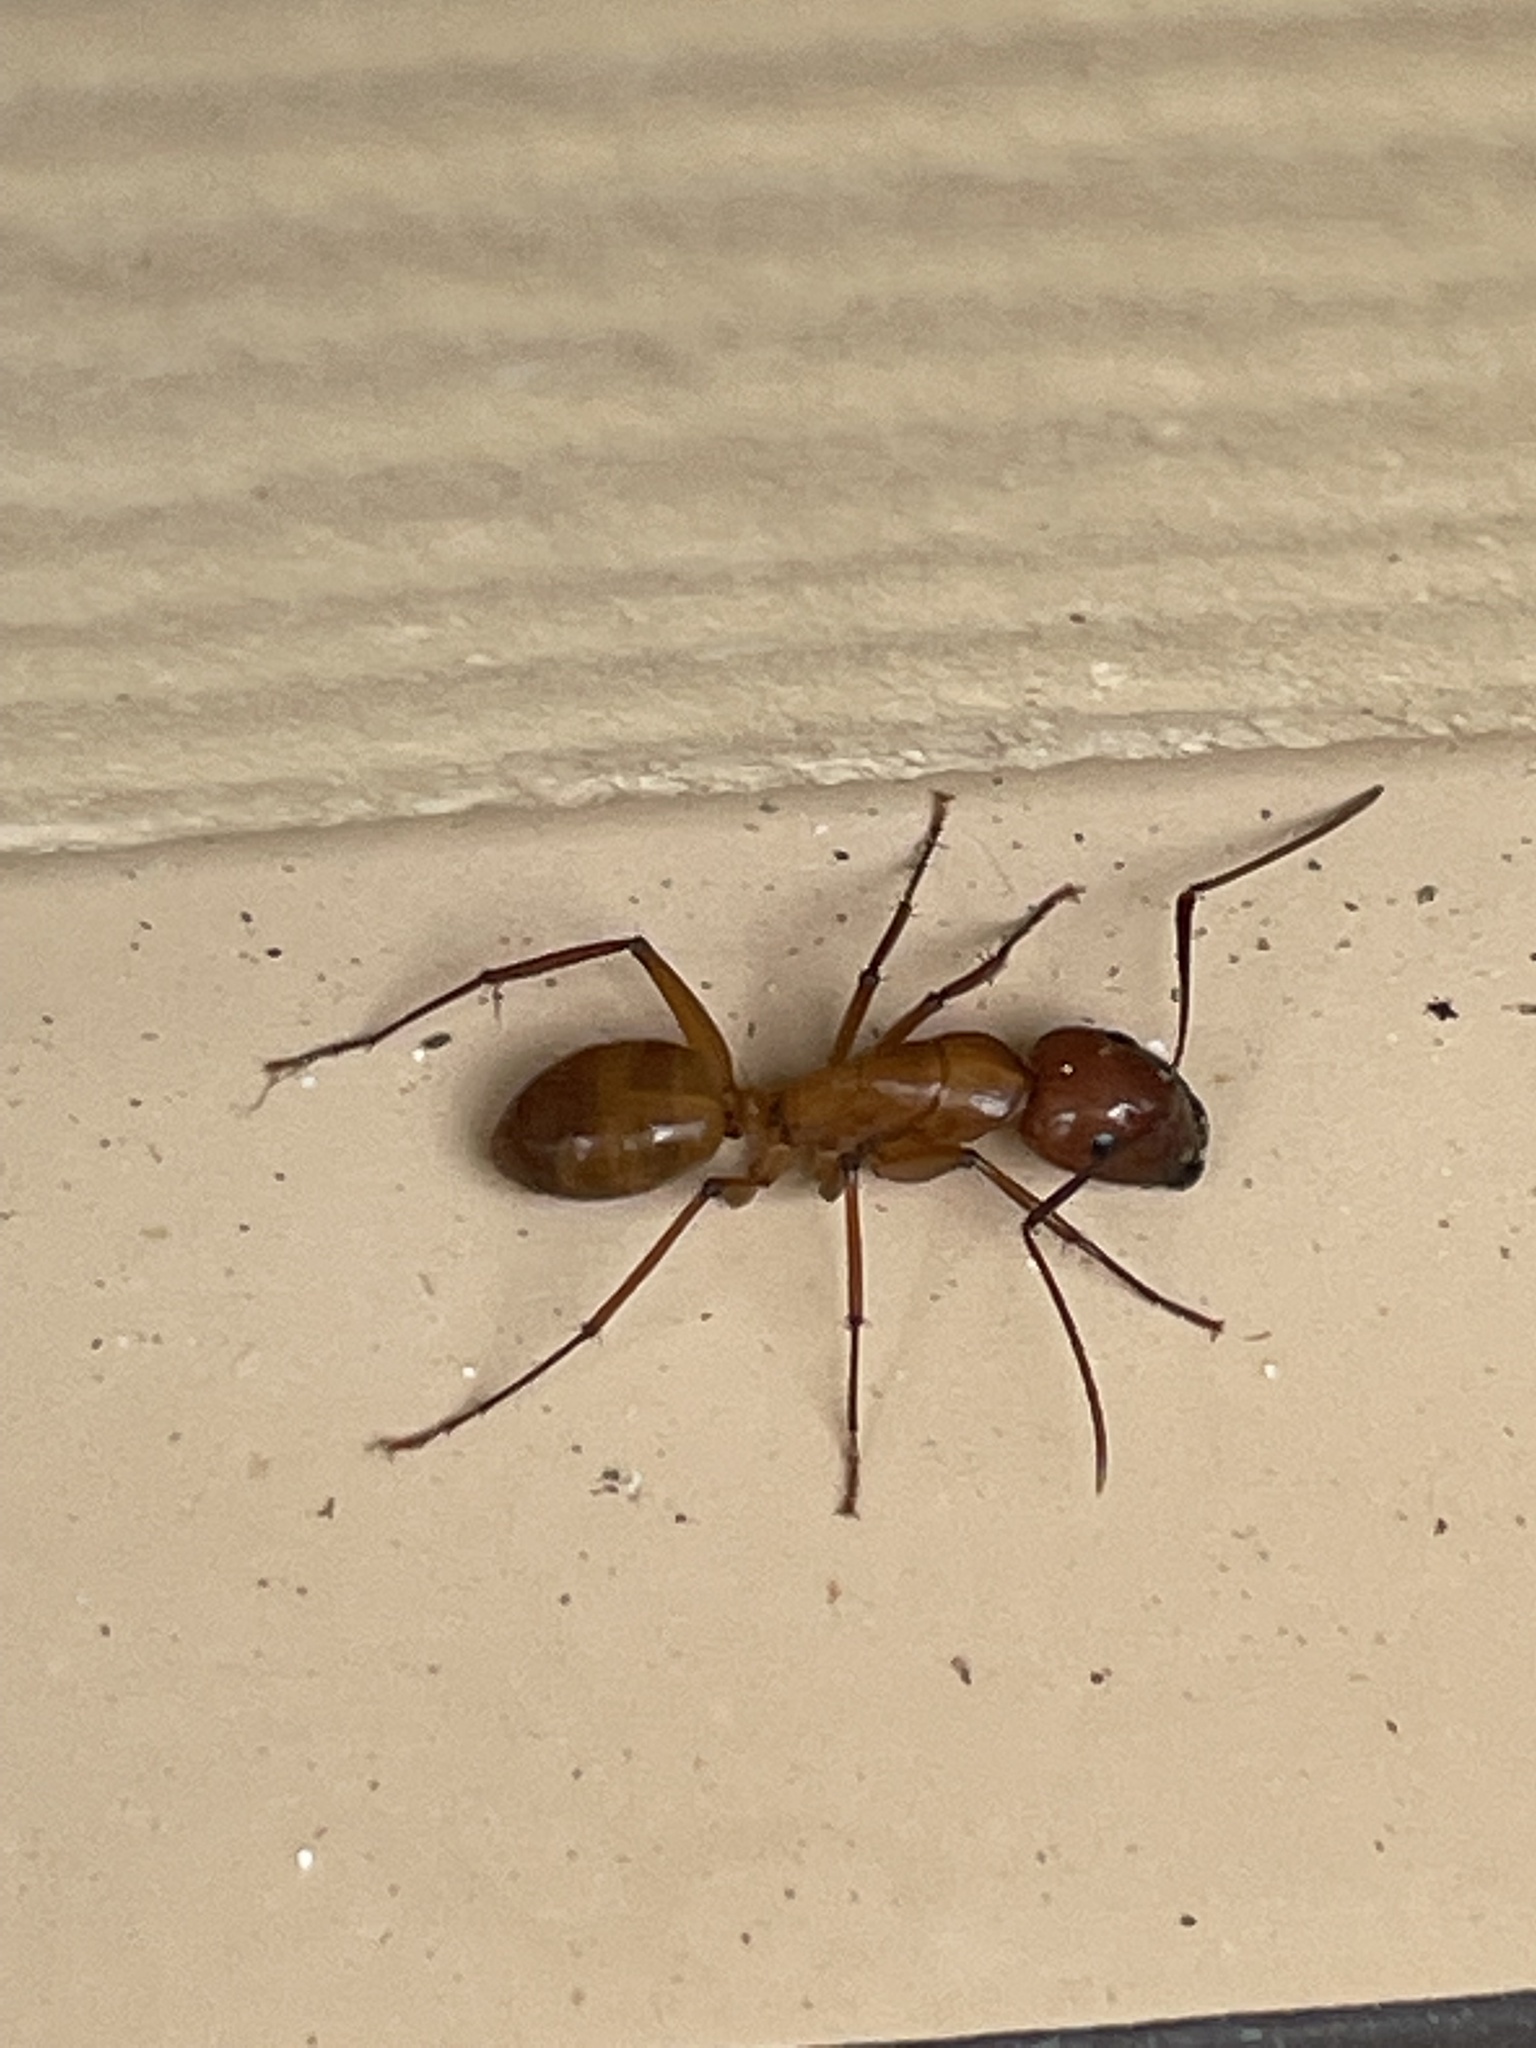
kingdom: Animalia
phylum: Arthropoda
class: Insecta
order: Hymenoptera
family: Formicidae
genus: Camponotus
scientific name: Camponotus castaneus
